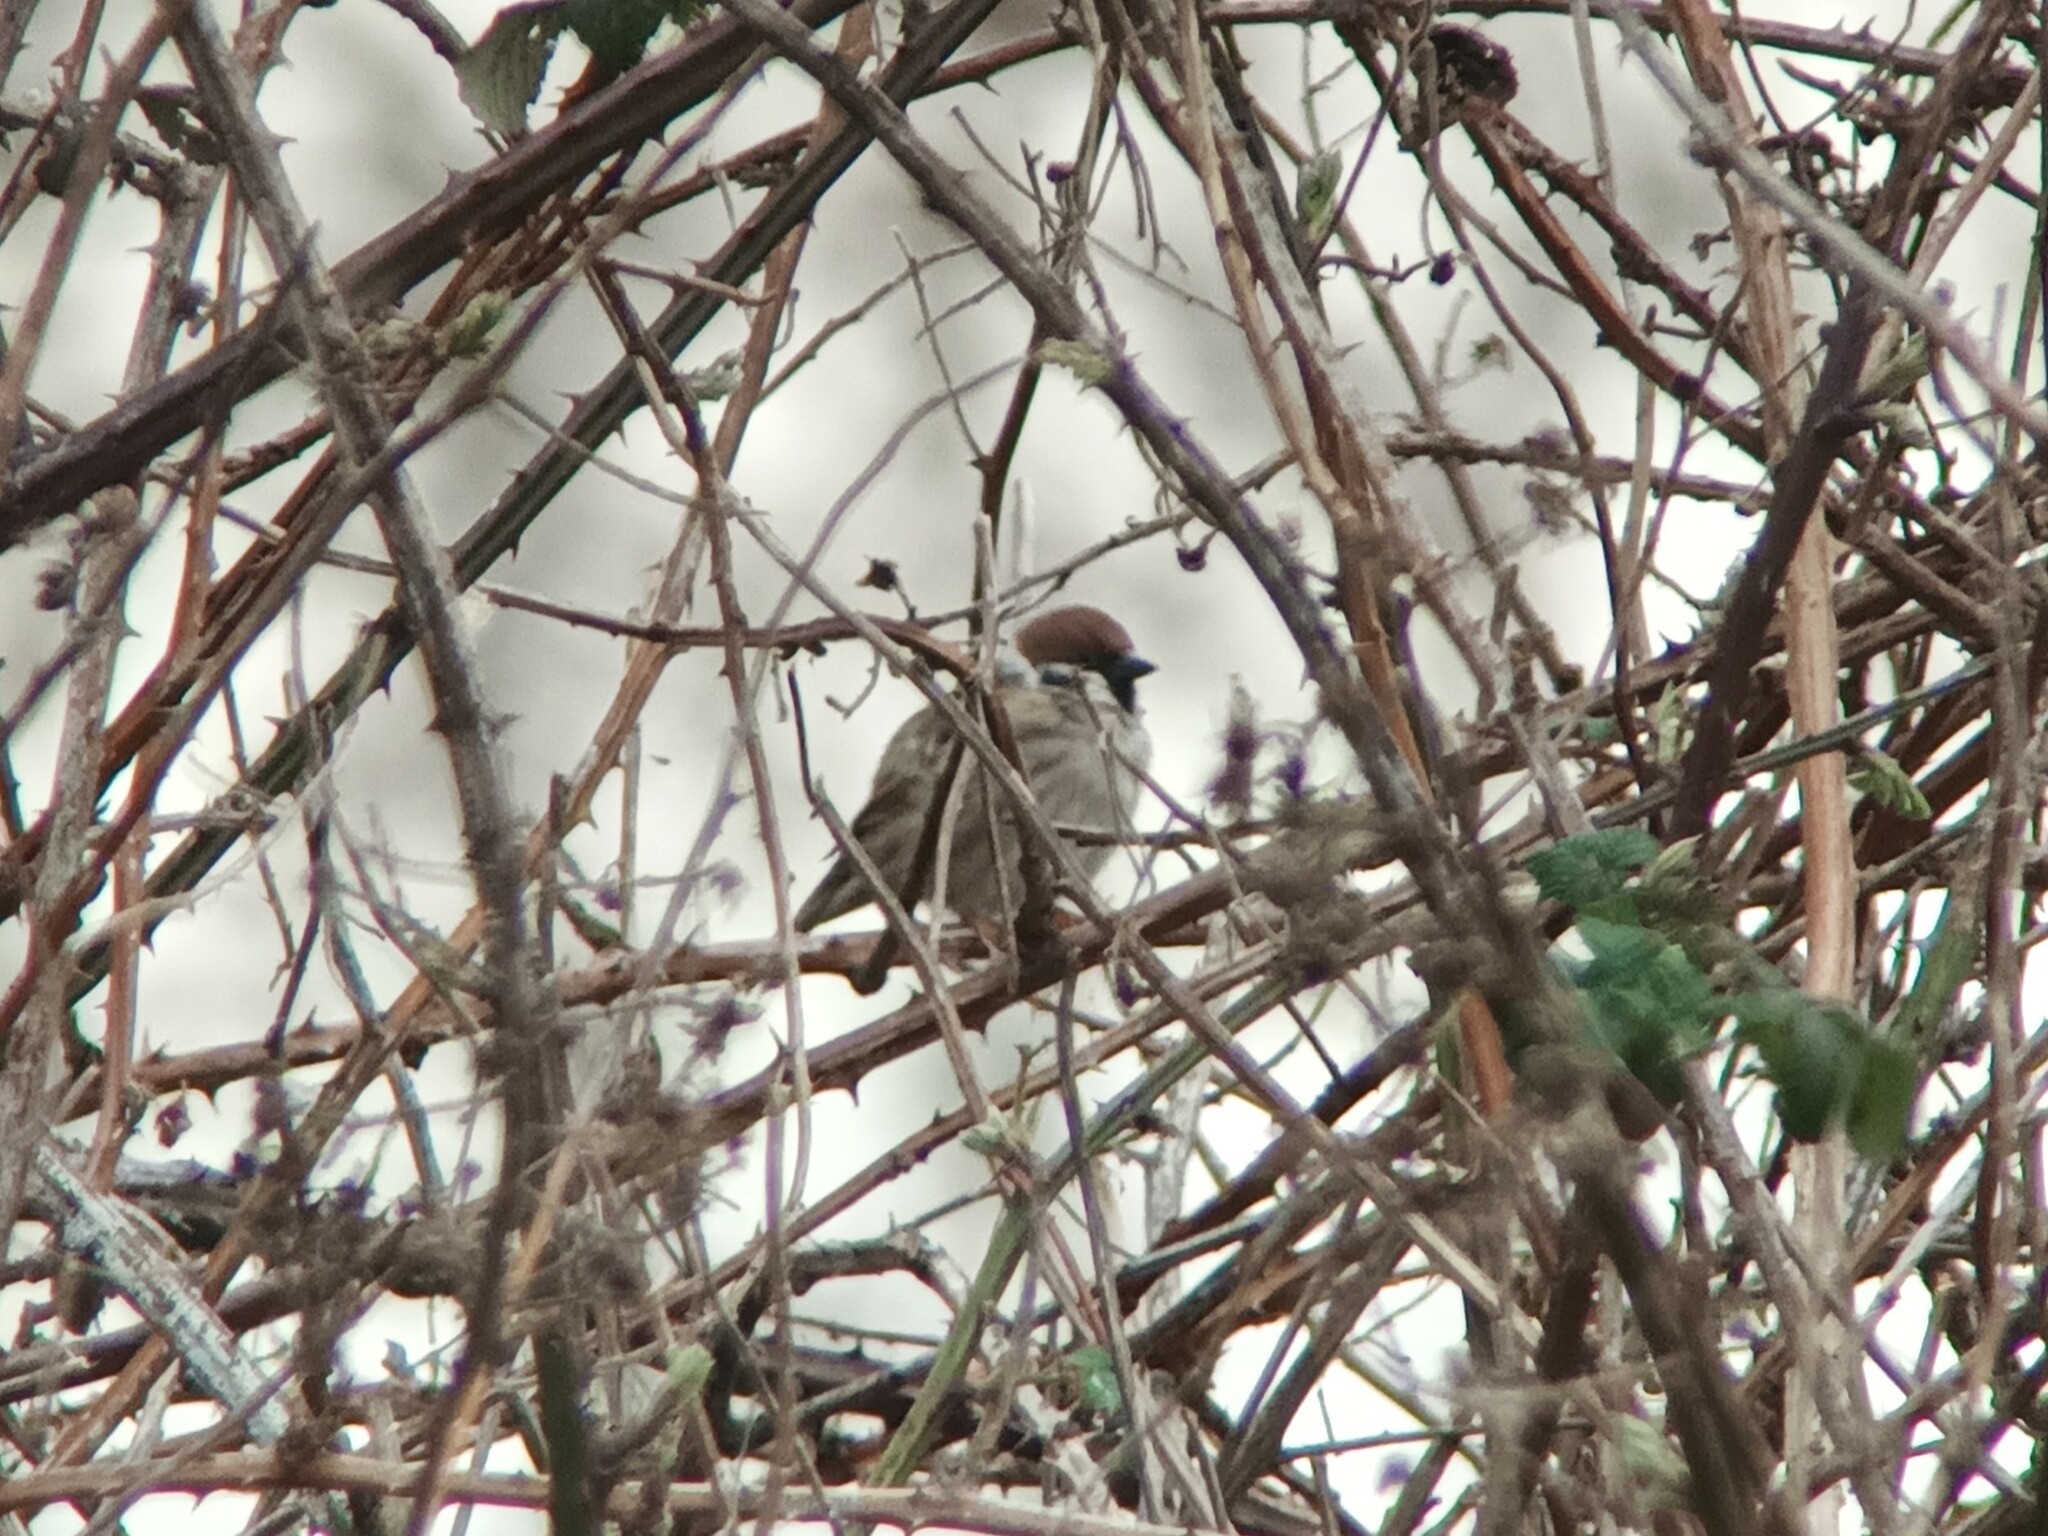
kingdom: Animalia
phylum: Chordata
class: Aves
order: Passeriformes
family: Passeridae
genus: Passer
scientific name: Passer montanus
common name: Eurasian tree sparrow
